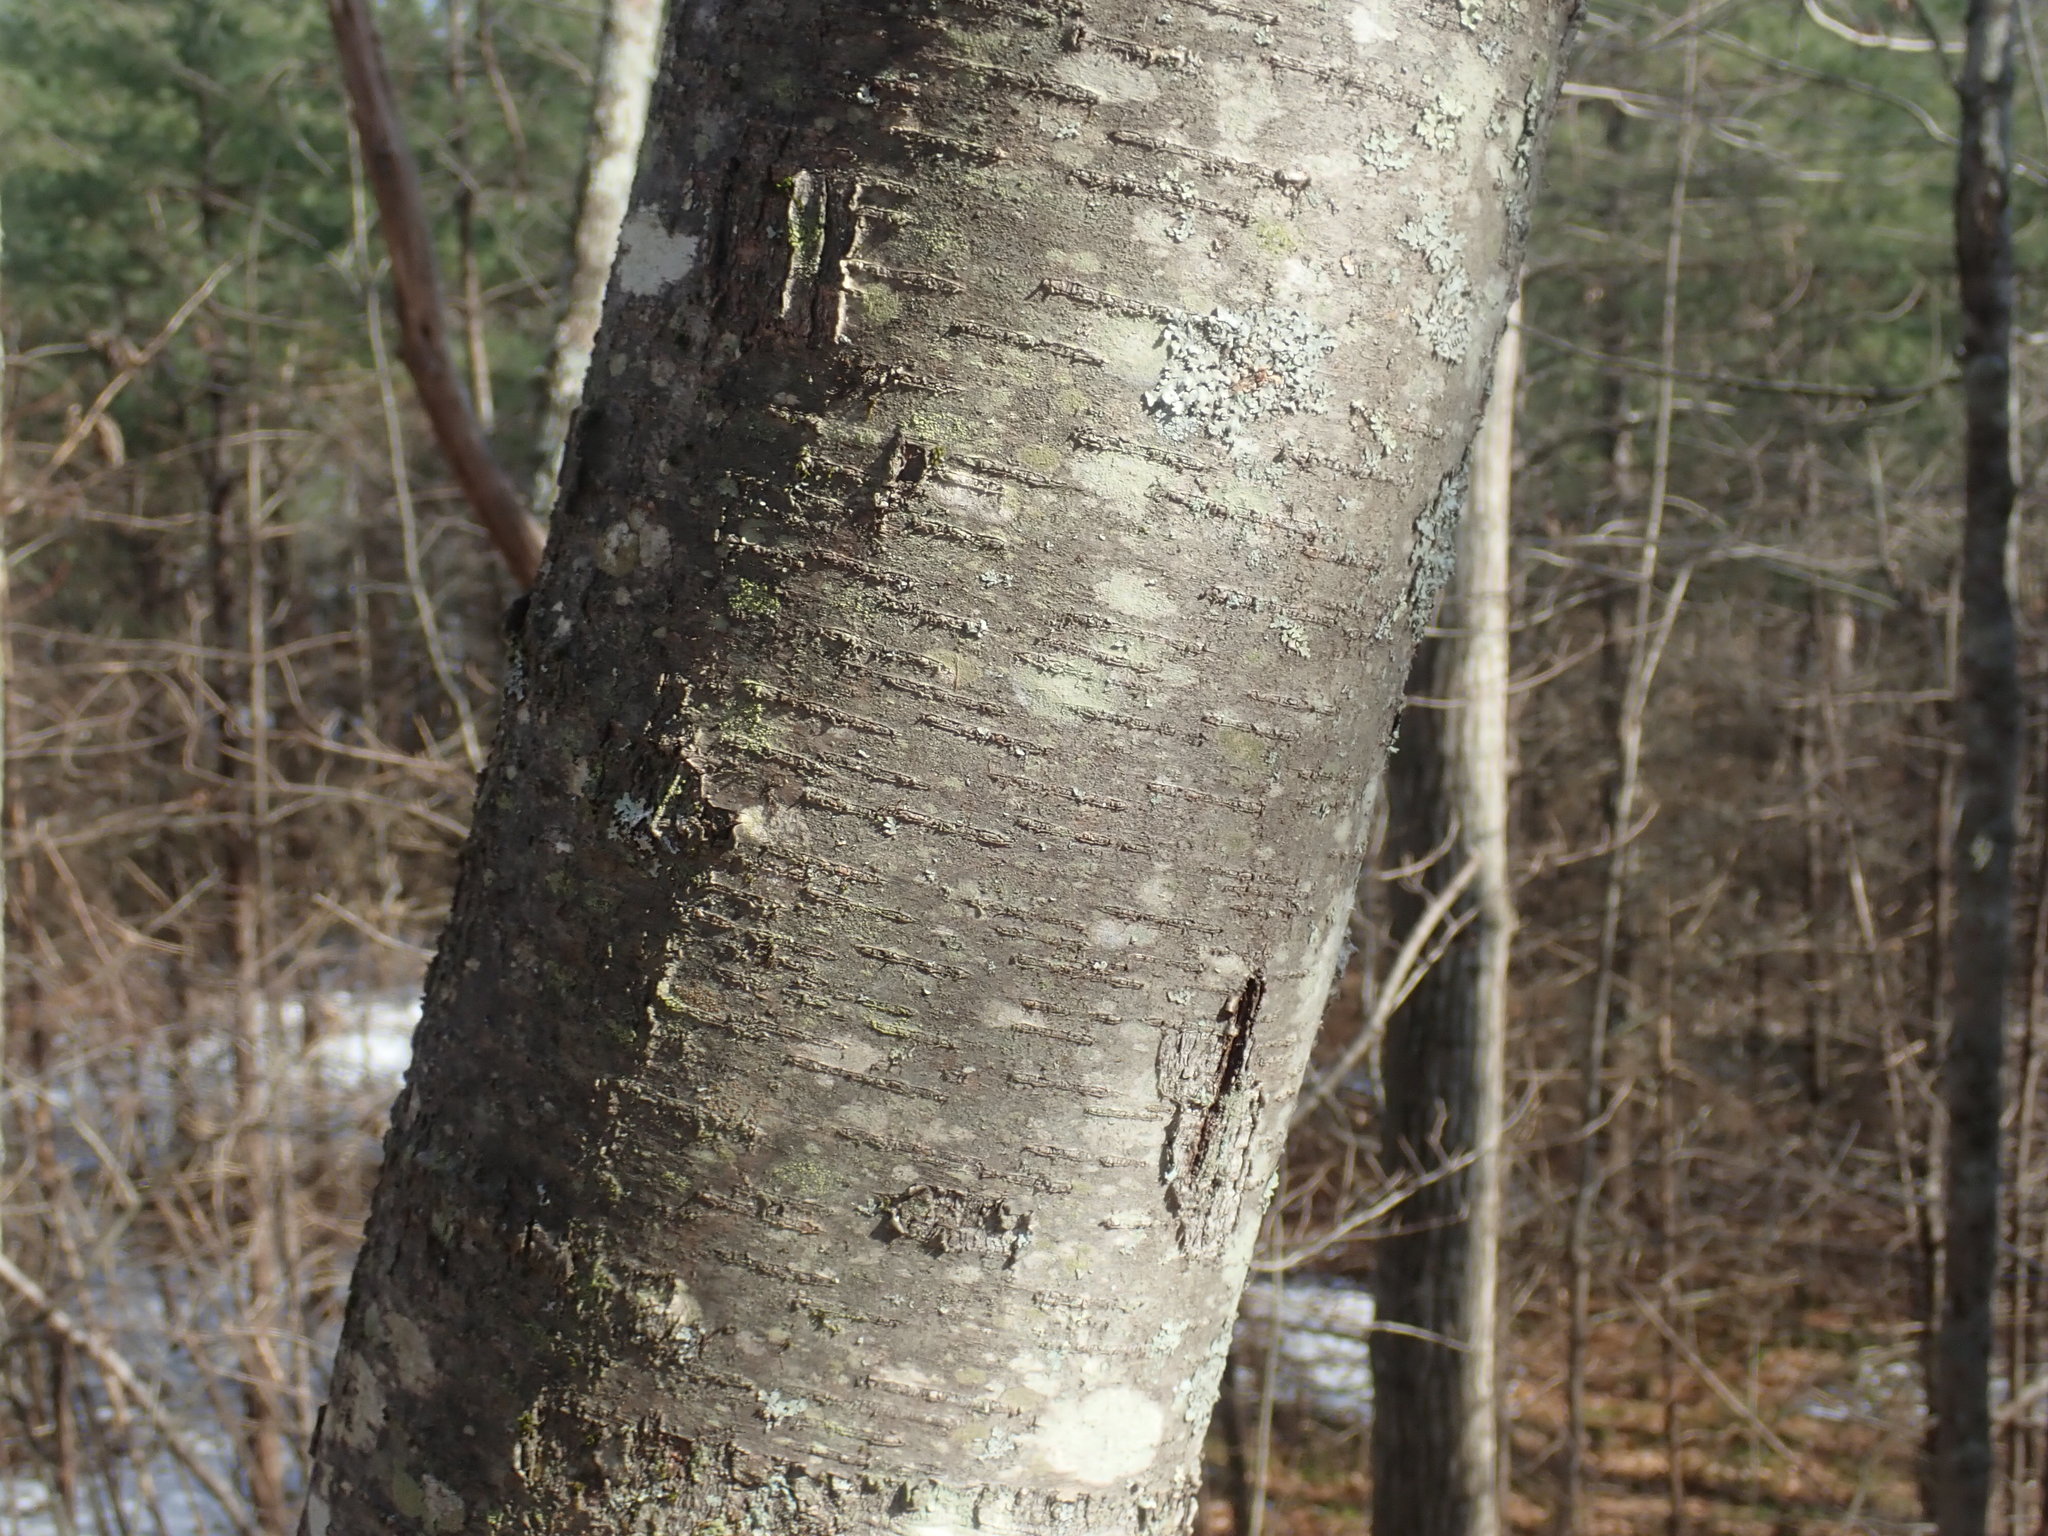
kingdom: Plantae
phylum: Tracheophyta
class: Magnoliopsida
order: Fagales
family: Betulaceae
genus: Betula
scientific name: Betula lenta
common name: Black birch
